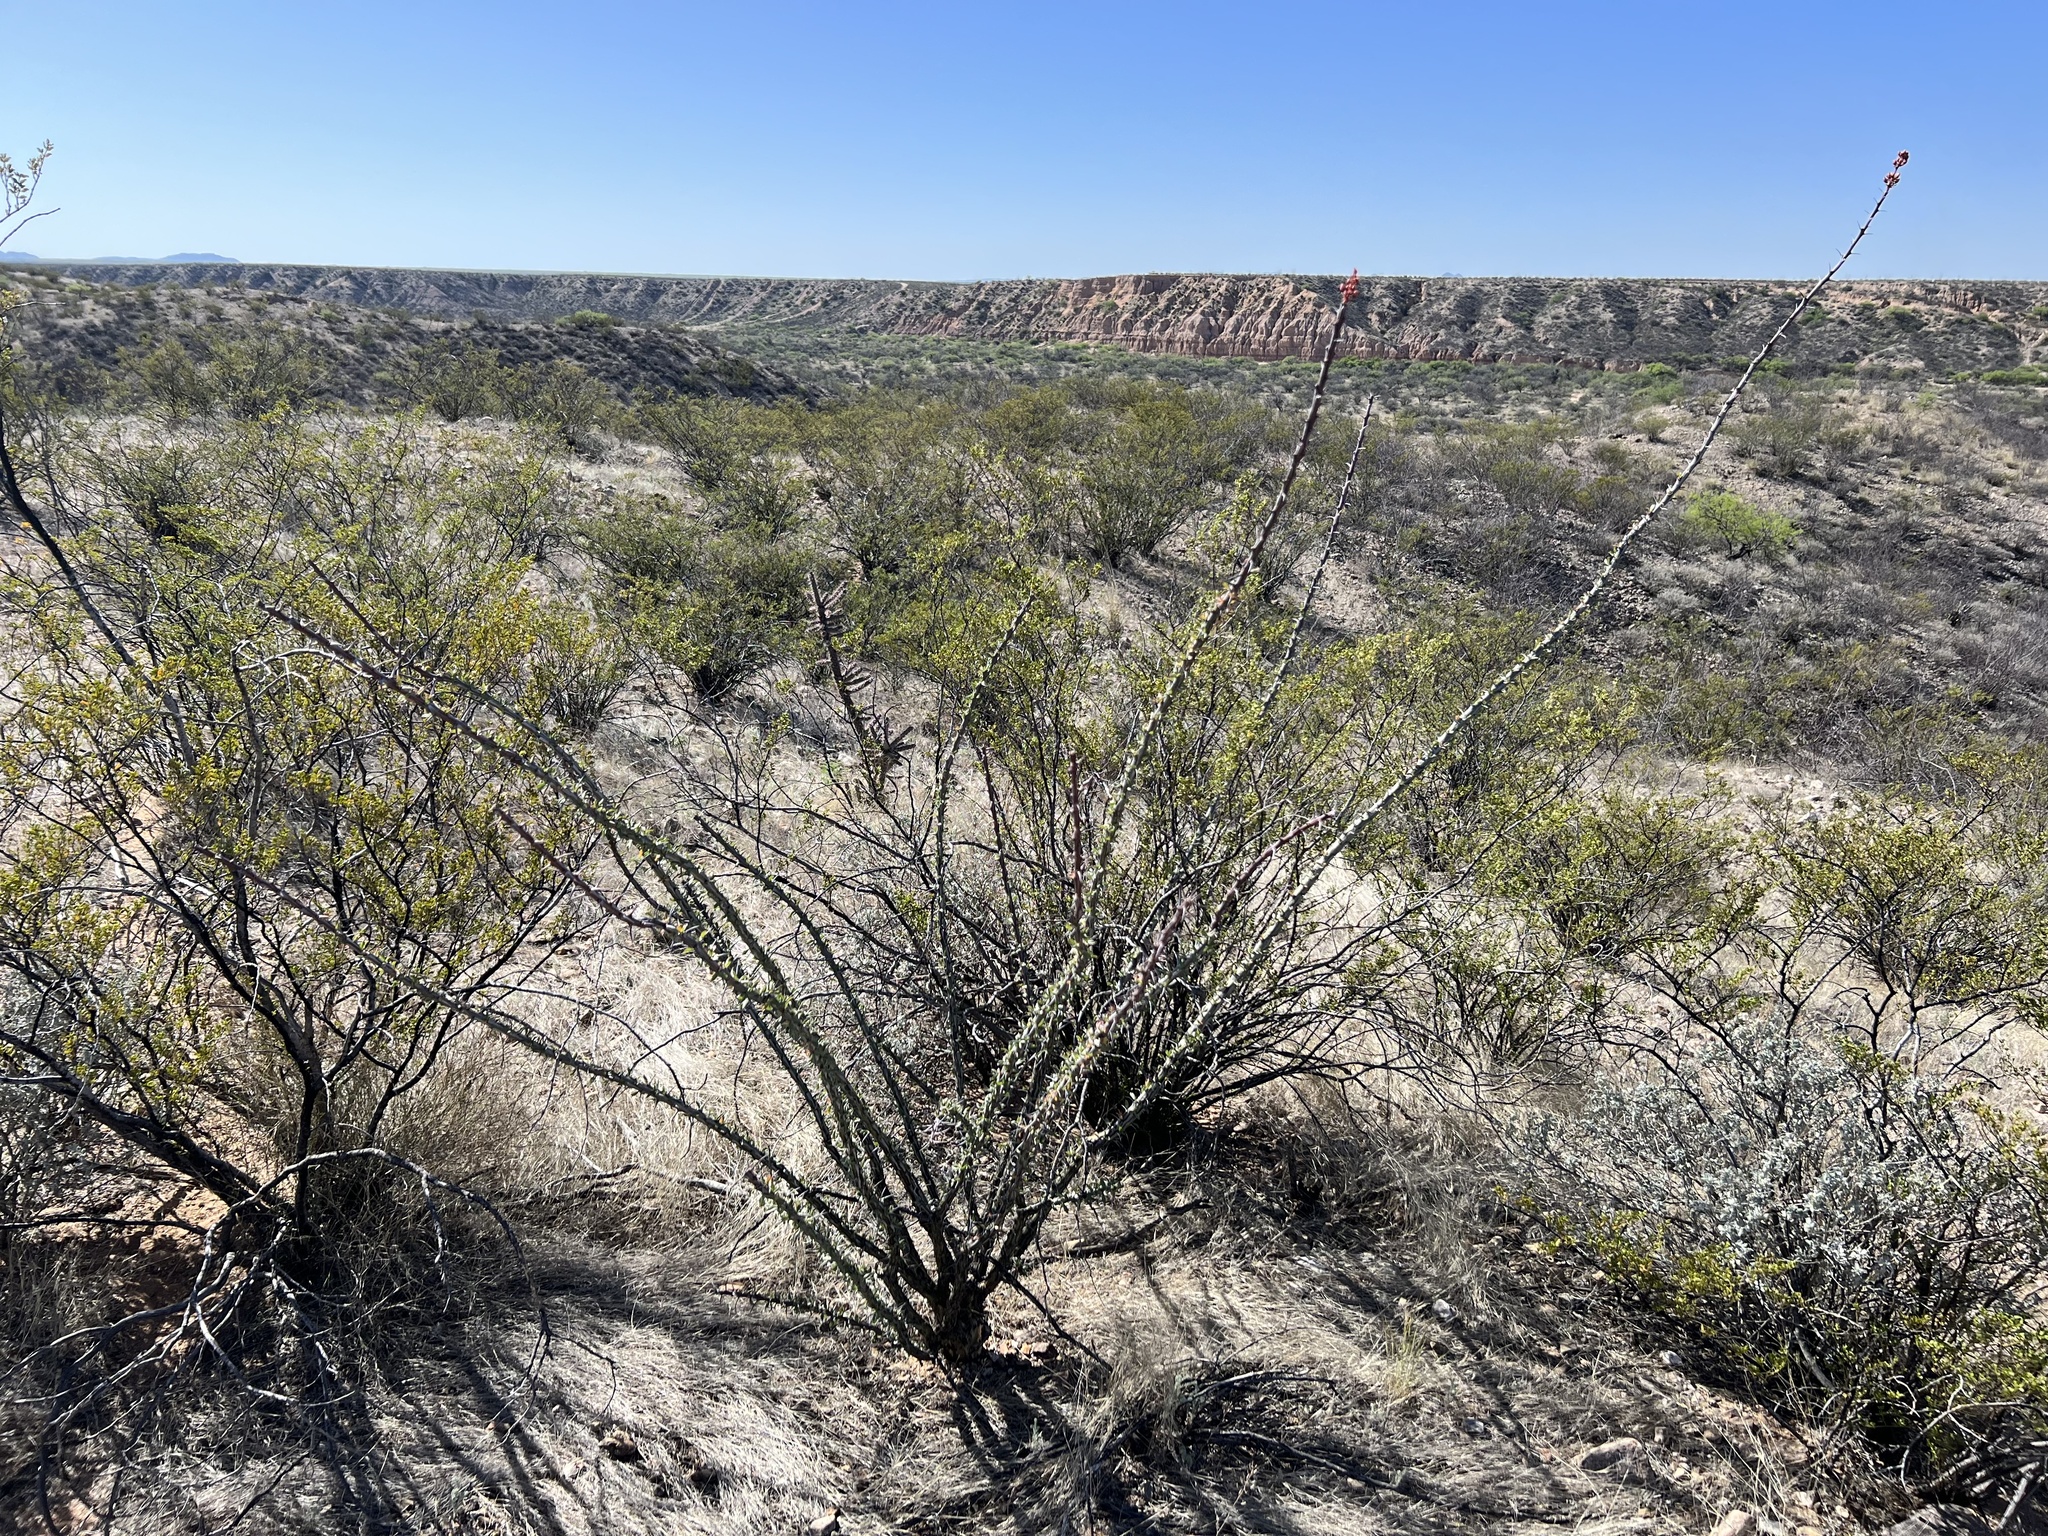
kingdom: Plantae
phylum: Tracheophyta
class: Magnoliopsida
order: Ericales
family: Fouquieriaceae
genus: Fouquieria
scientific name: Fouquieria splendens
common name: Vine-cactus
